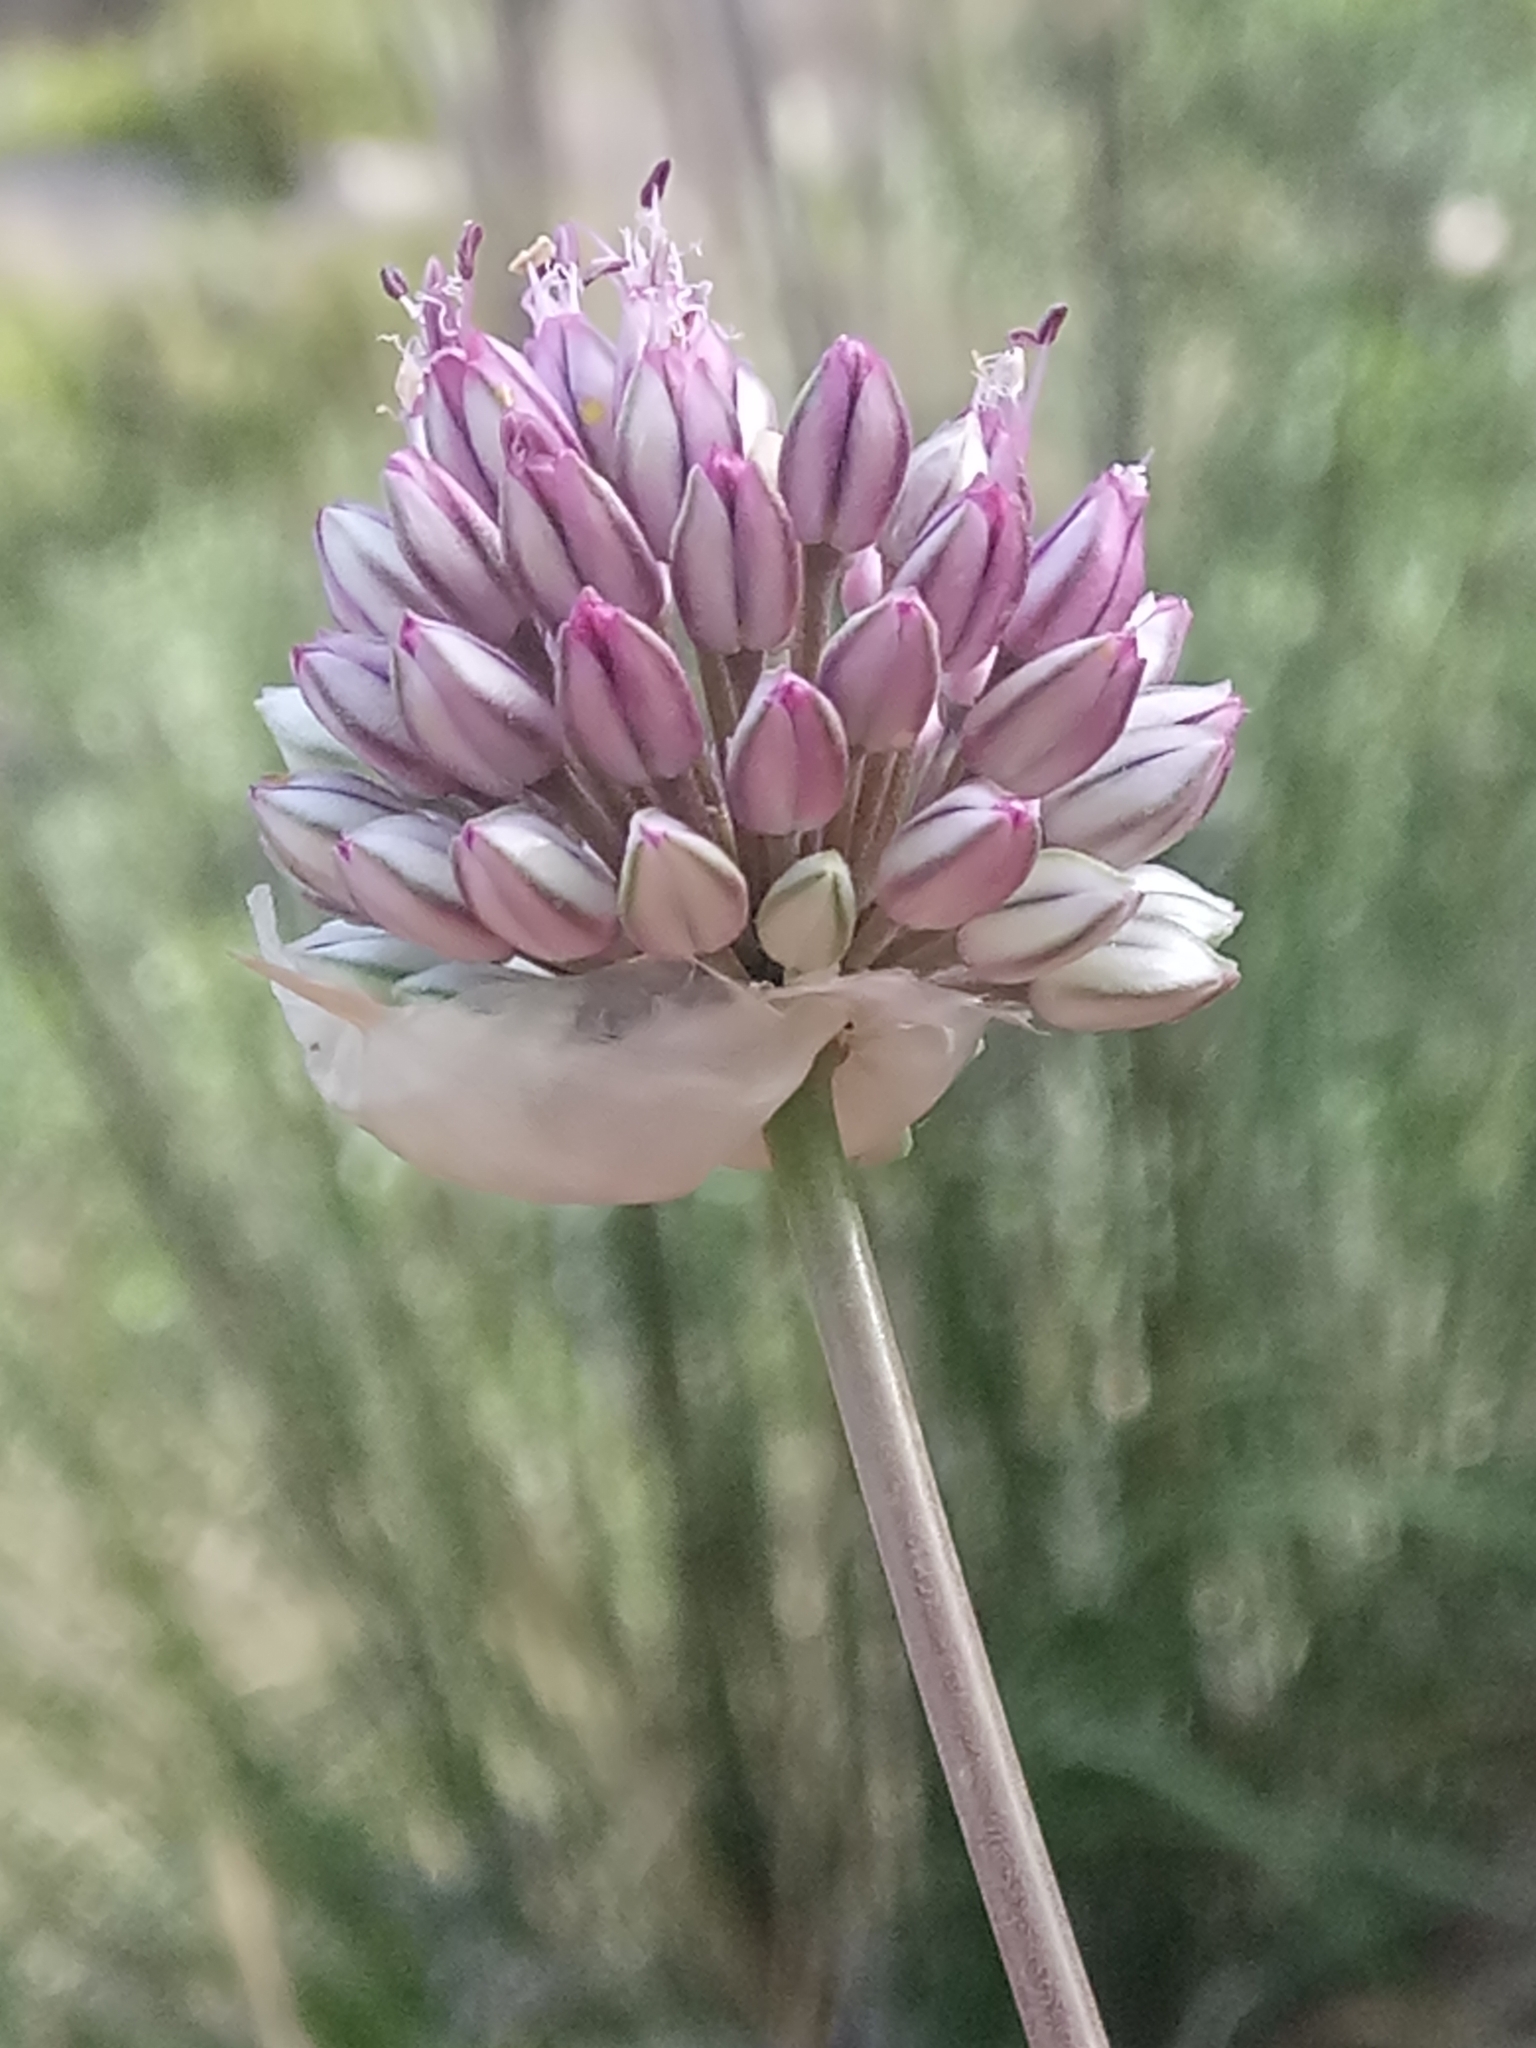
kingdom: Plantae
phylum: Tracheophyta
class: Liliopsida
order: Asparagales
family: Amaryllidaceae
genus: Allium
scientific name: Allium ebusitanum
